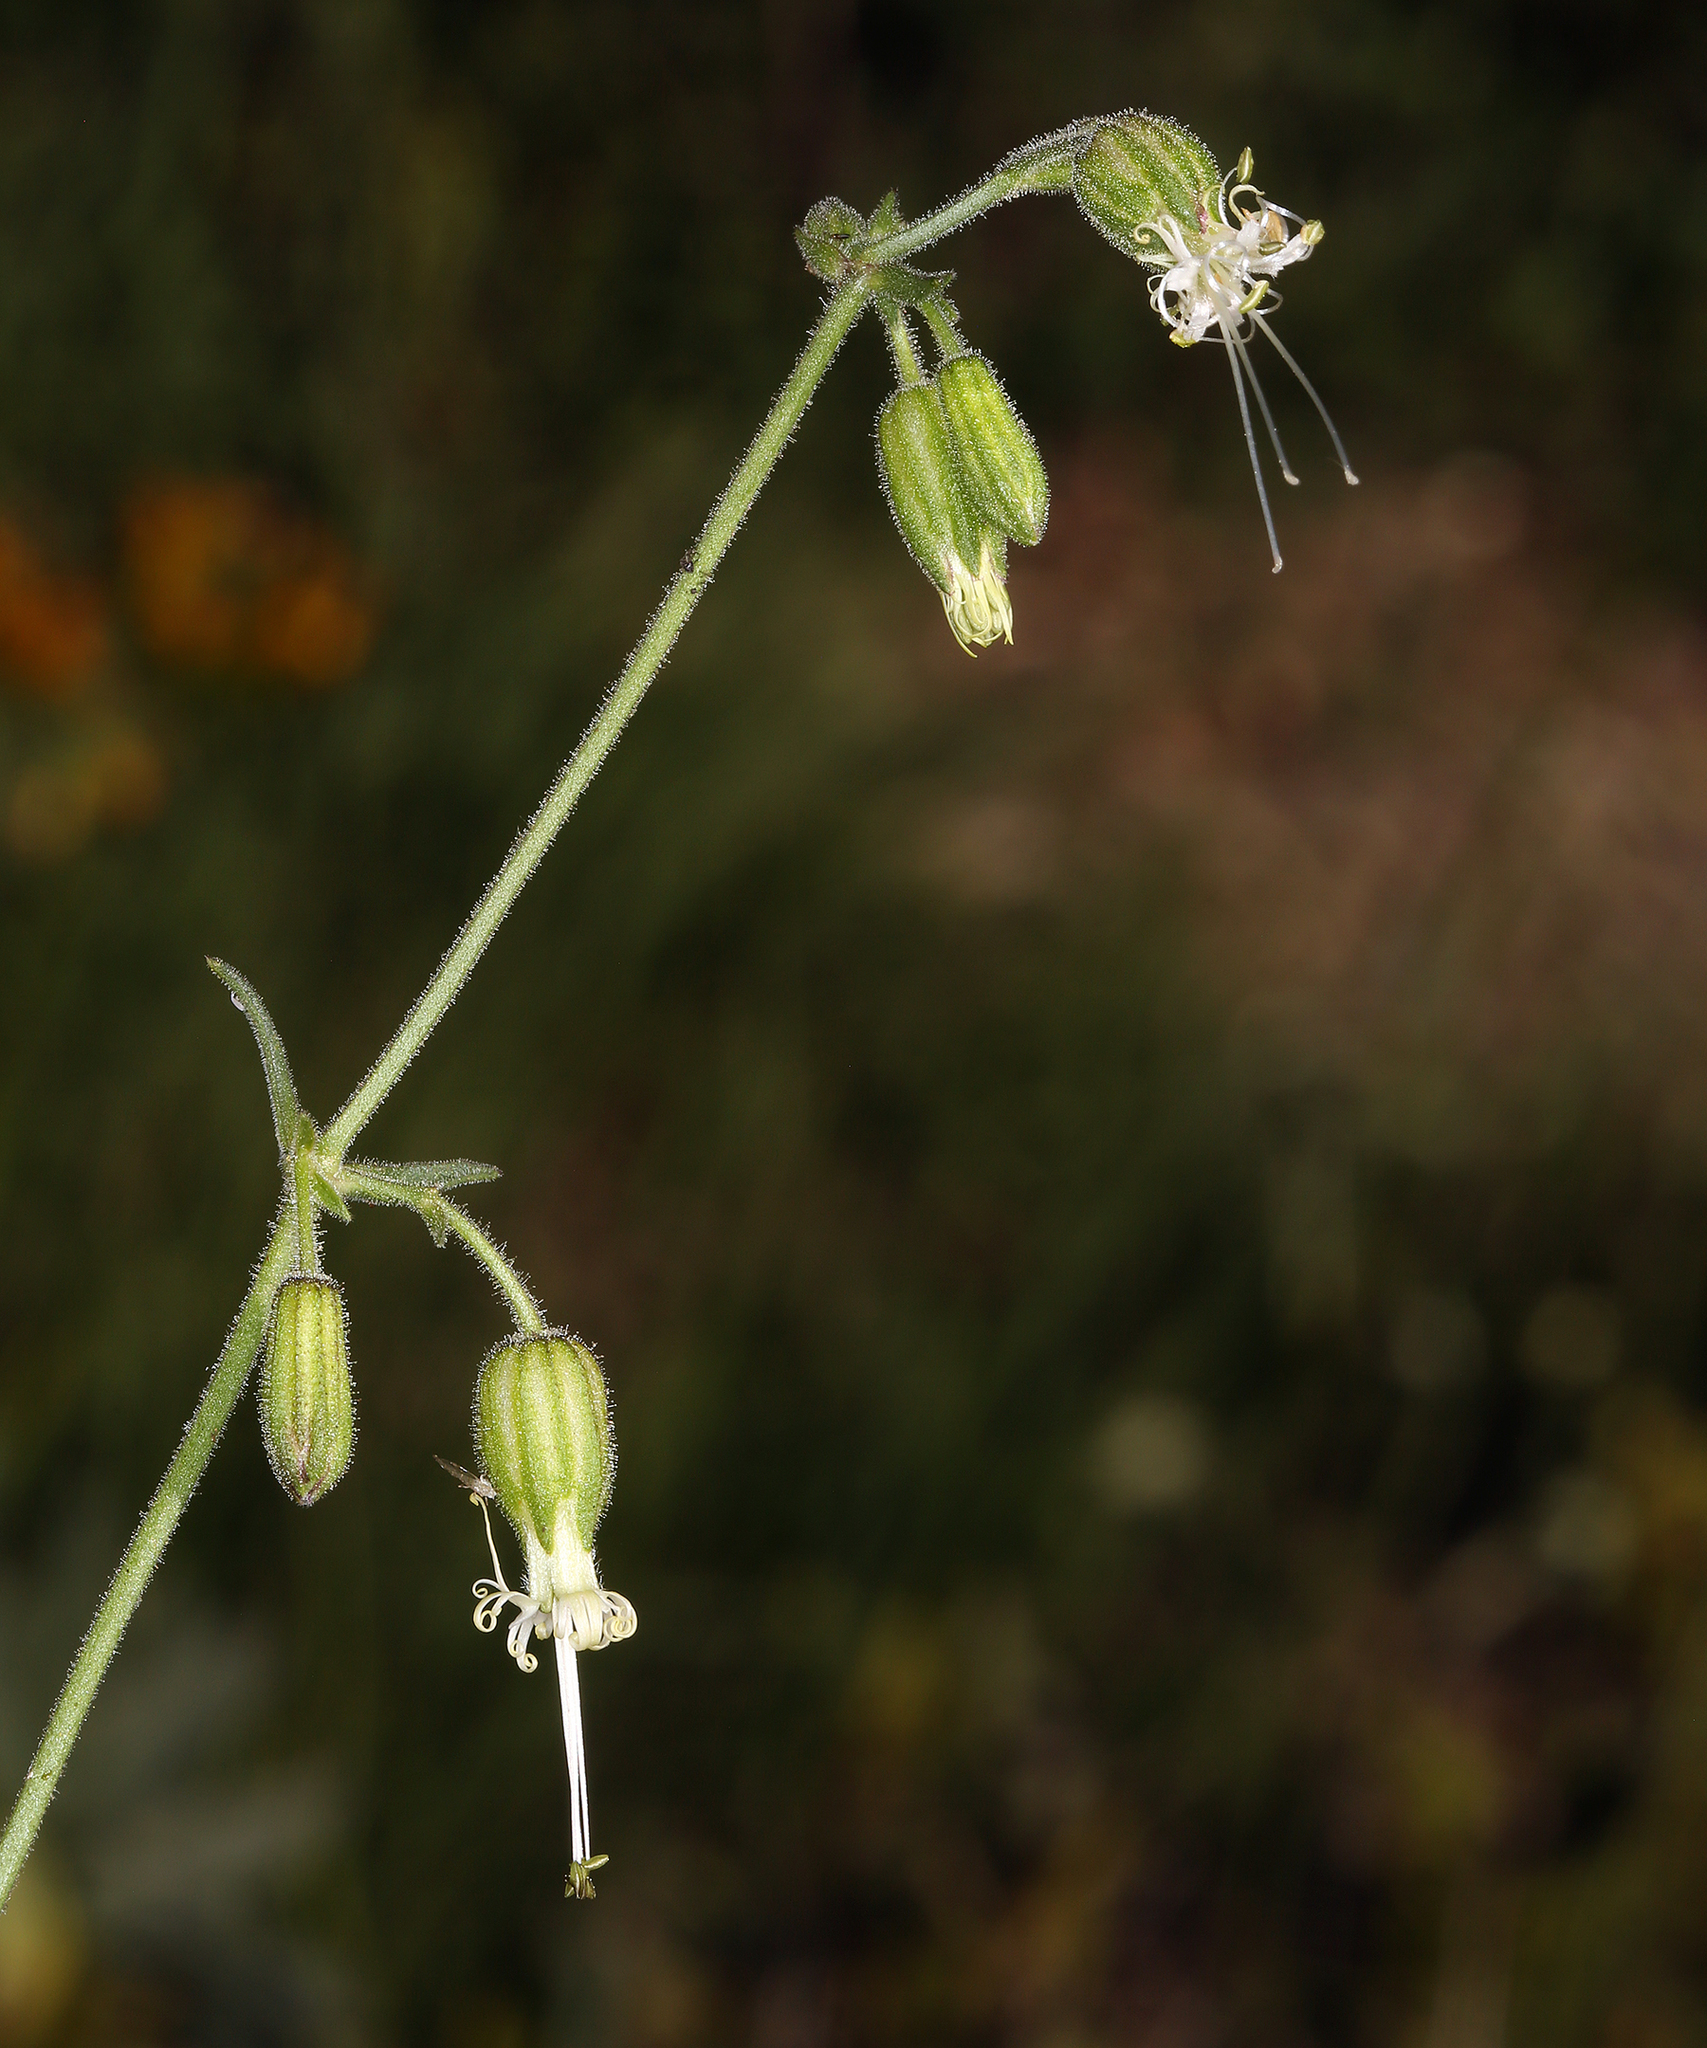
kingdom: Plantae
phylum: Tracheophyta
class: Magnoliopsida
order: Caryophyllales
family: Caryophyllaceae
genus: Silene
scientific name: Silene lemmonii
